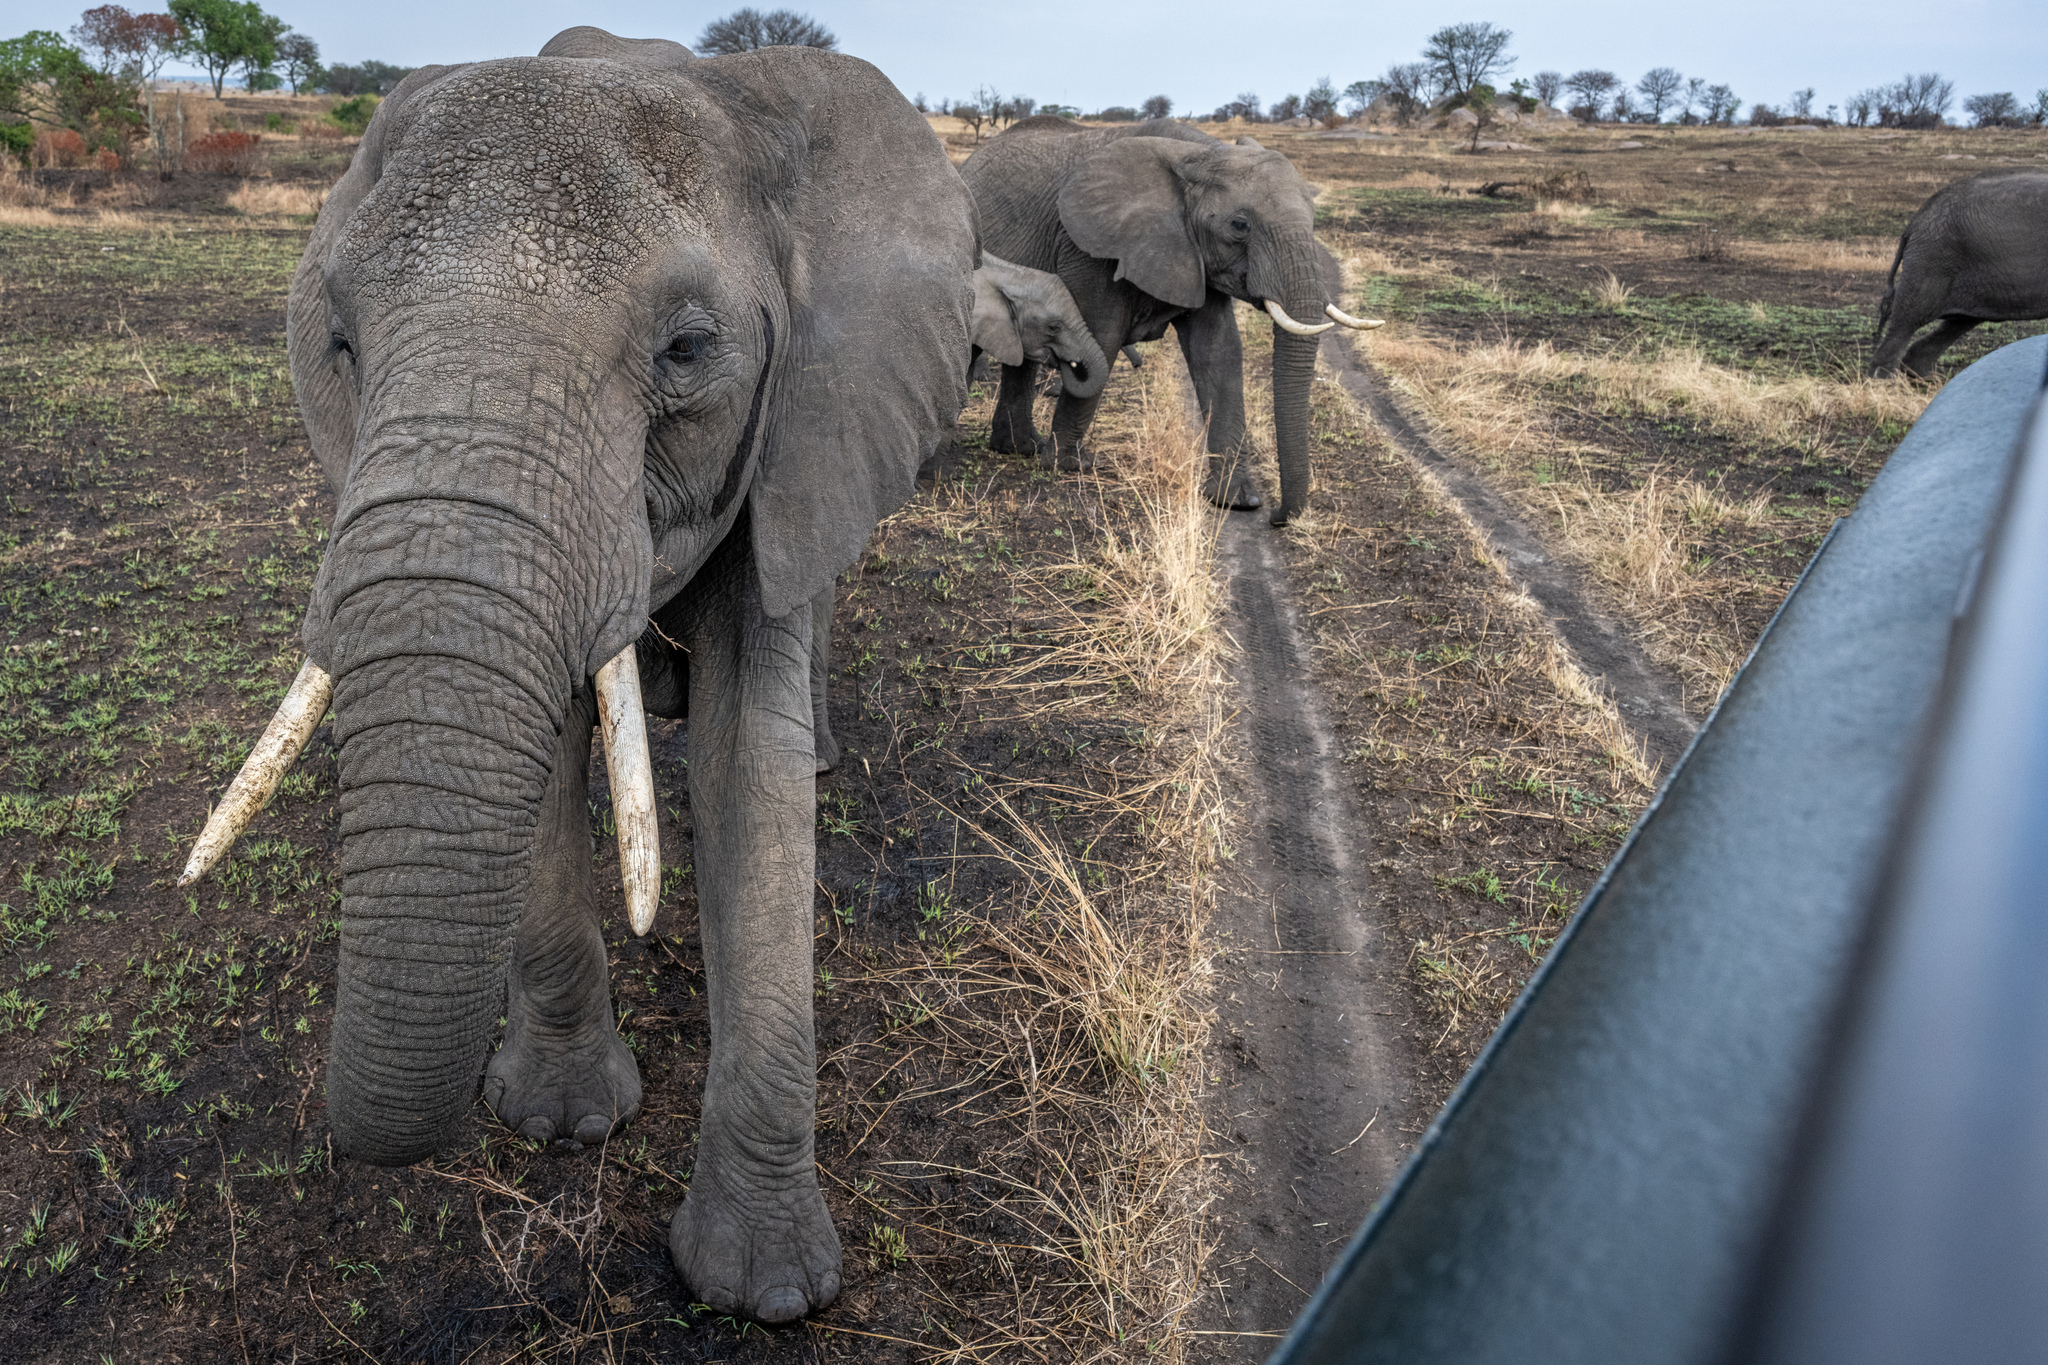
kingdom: Animalia
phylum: Chordata
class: Mammalia
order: Proboscidea
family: Elephantidae
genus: Loxodonta
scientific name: Loxodonta africana
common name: African elephant
